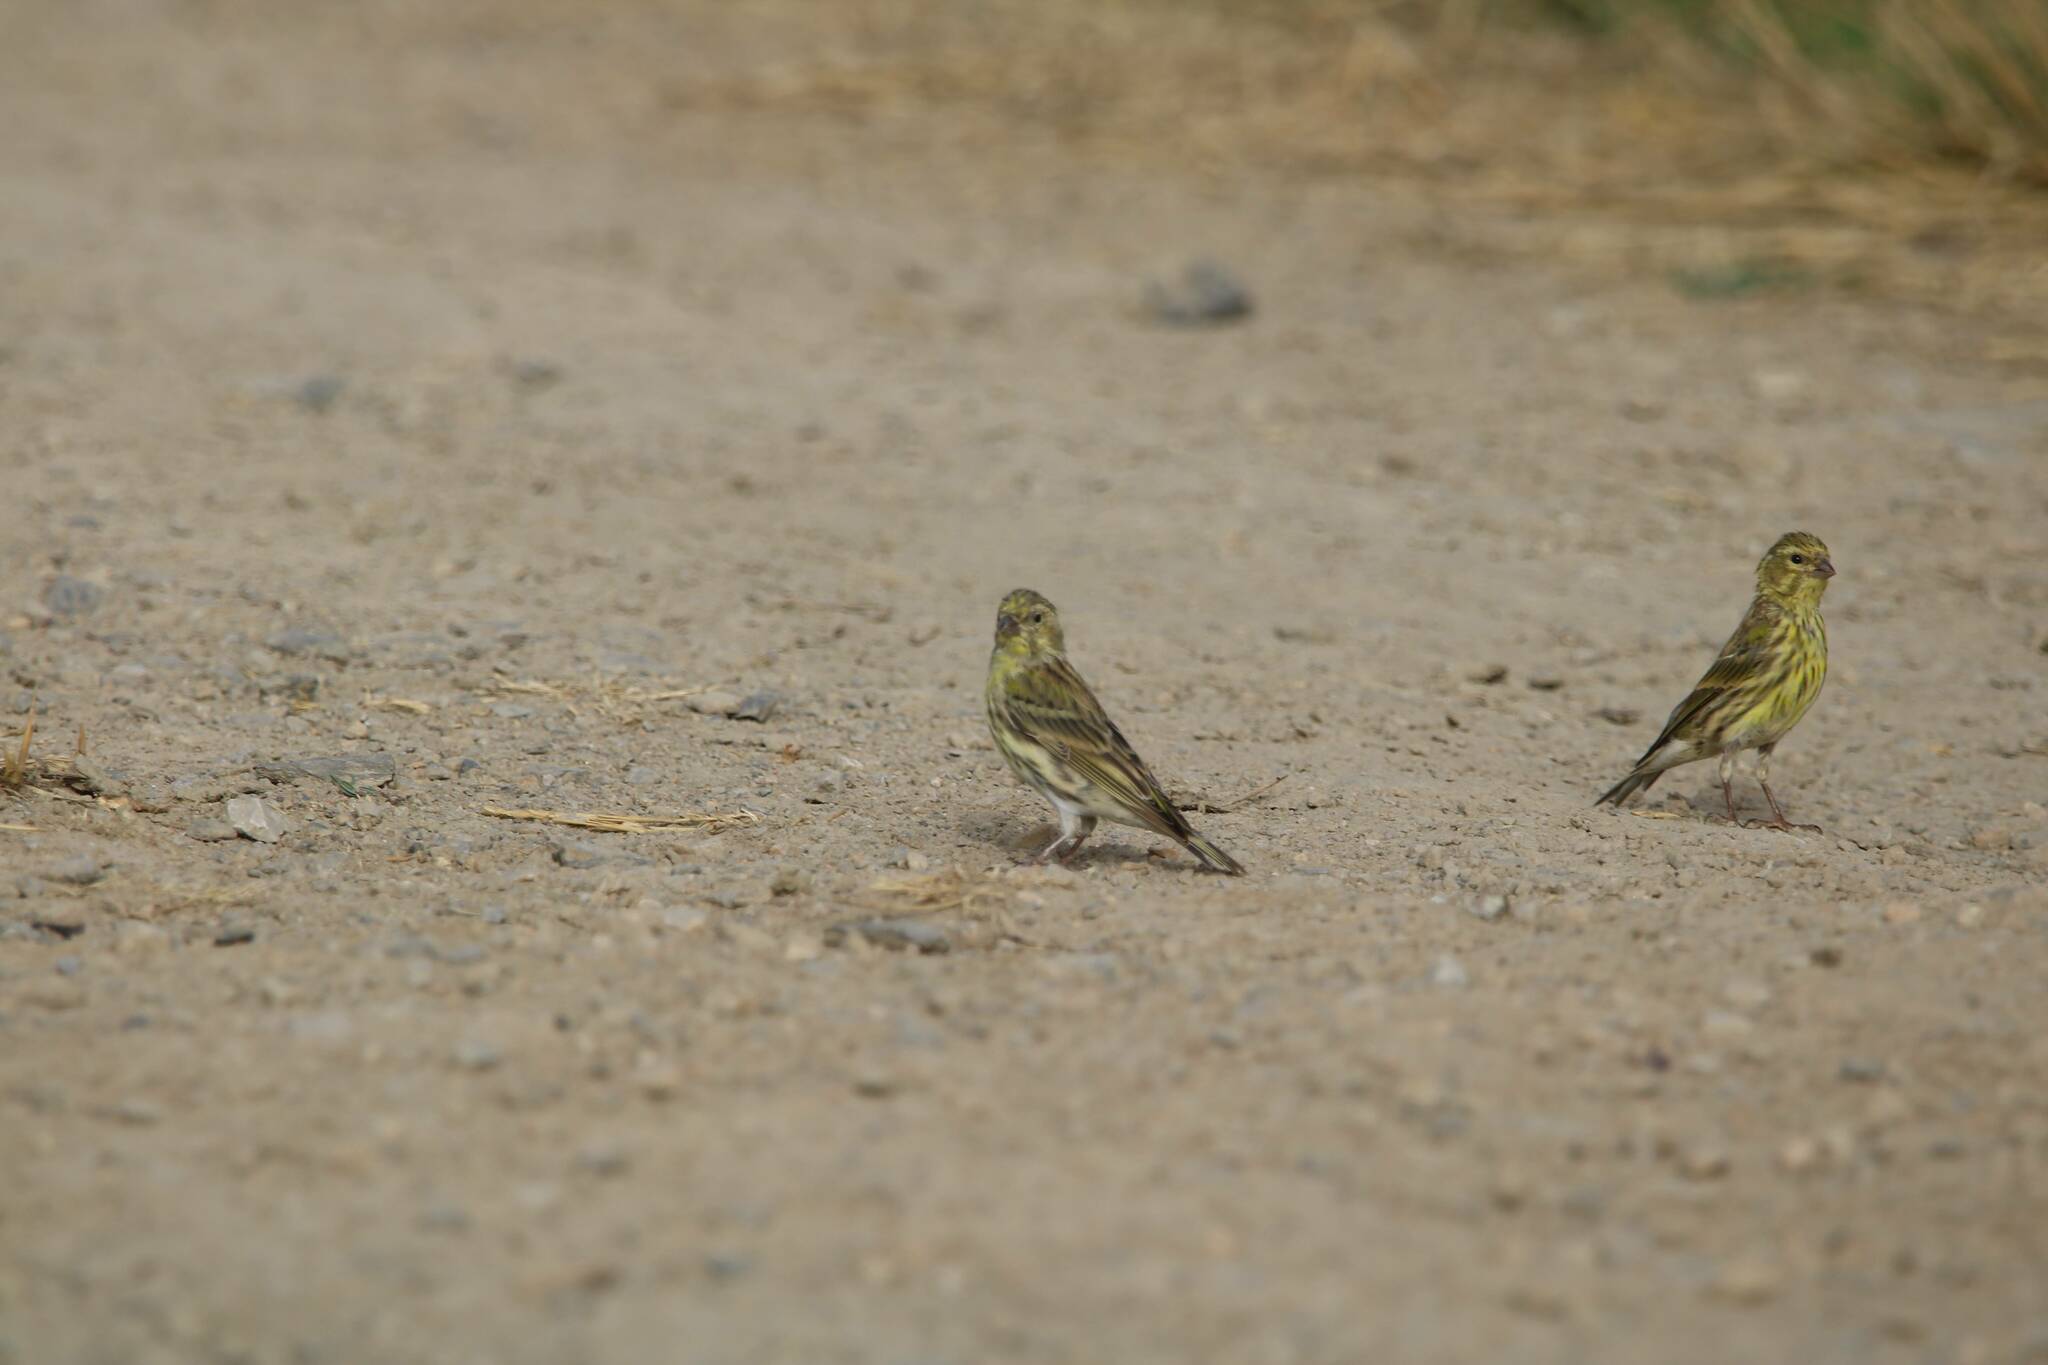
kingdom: Animalia
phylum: Chordata
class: Aves
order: Passeriformes
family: Fringillidae
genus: Serinus
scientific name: Serinus serinus
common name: European serin
